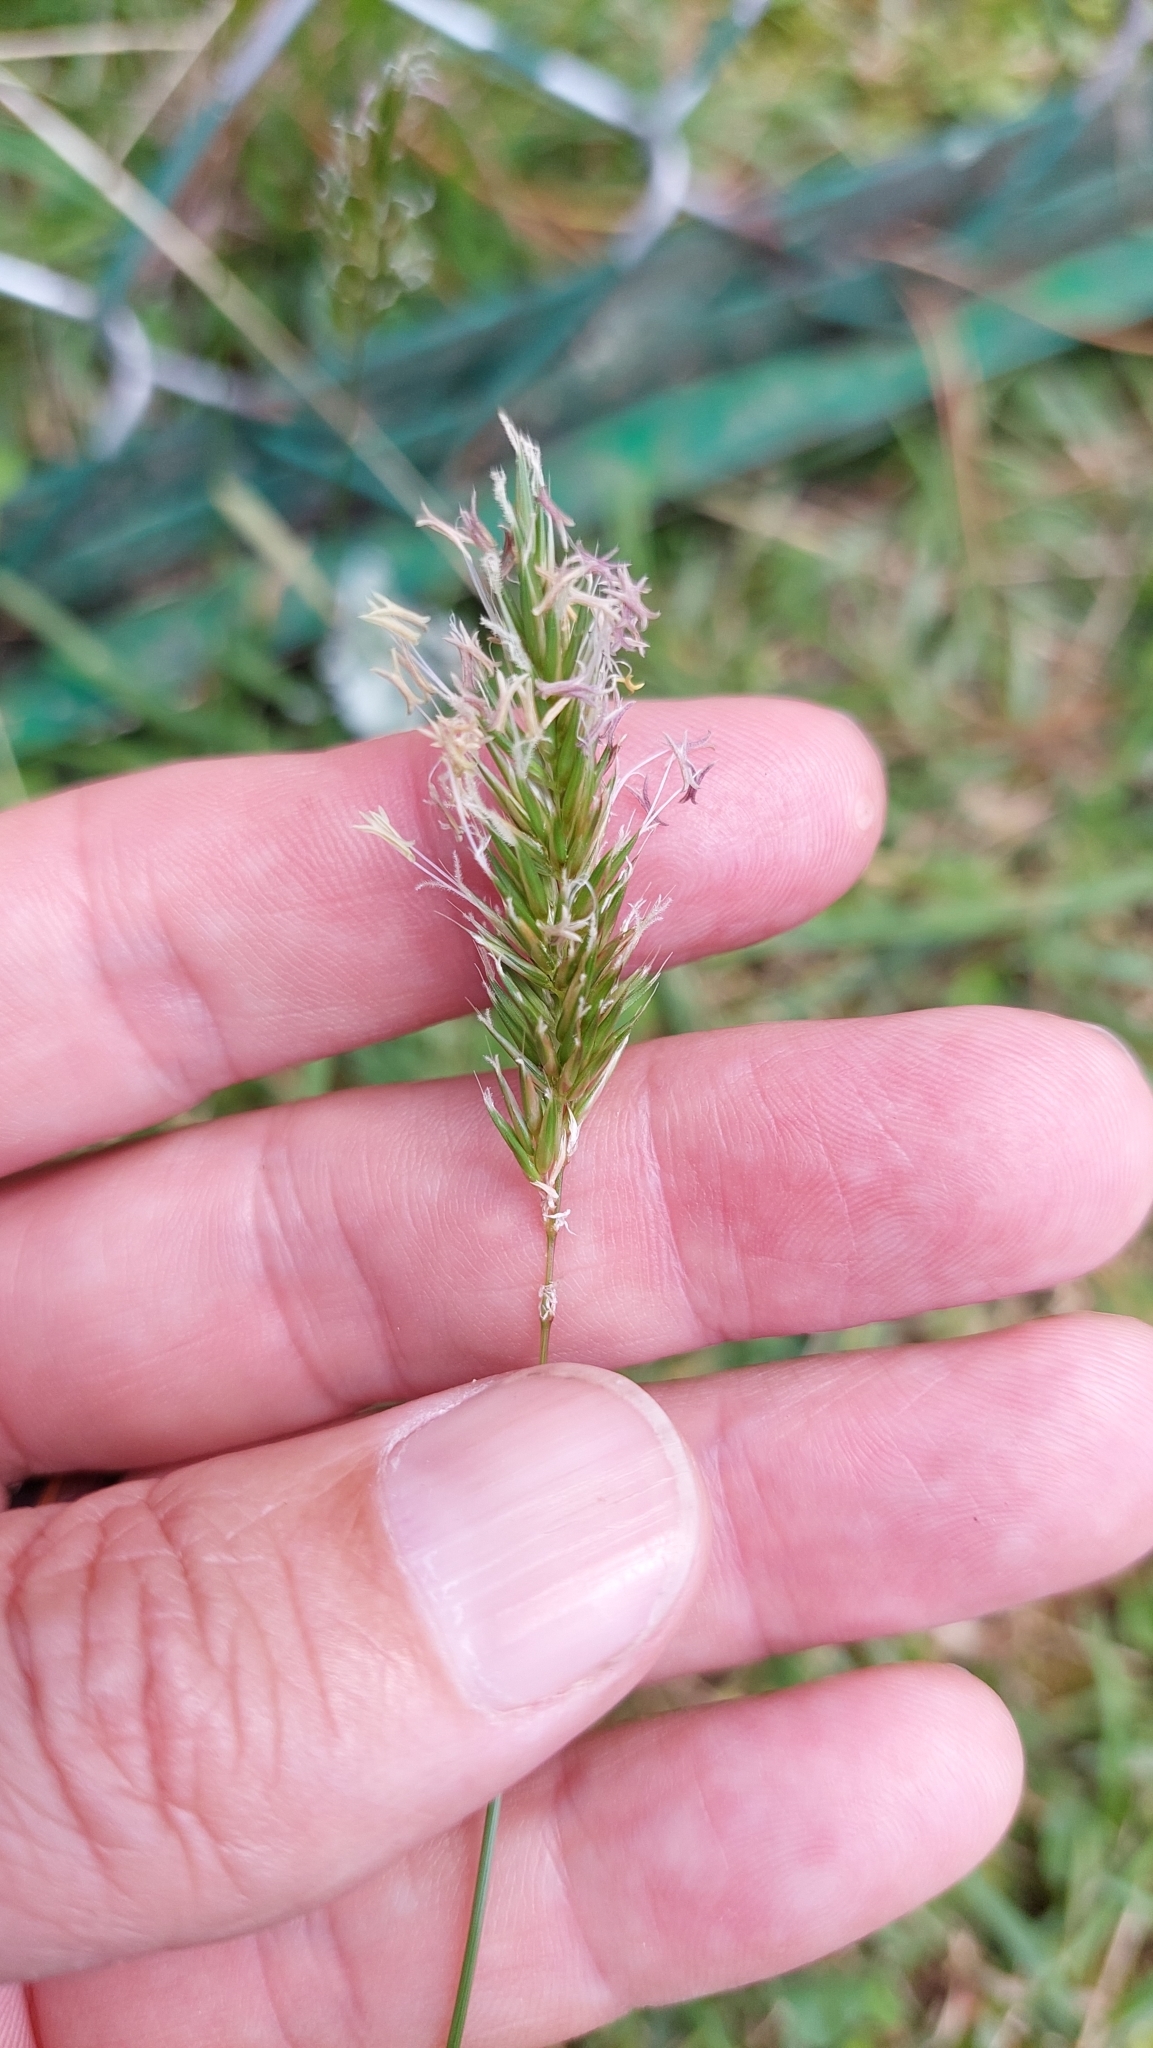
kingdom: Plantae
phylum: Tracheophyta
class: Liliopsida
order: Poales
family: Poaceae
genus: Anthoxanthum
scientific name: Anthoxanthum odoratum
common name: Sweet vernalgrass
